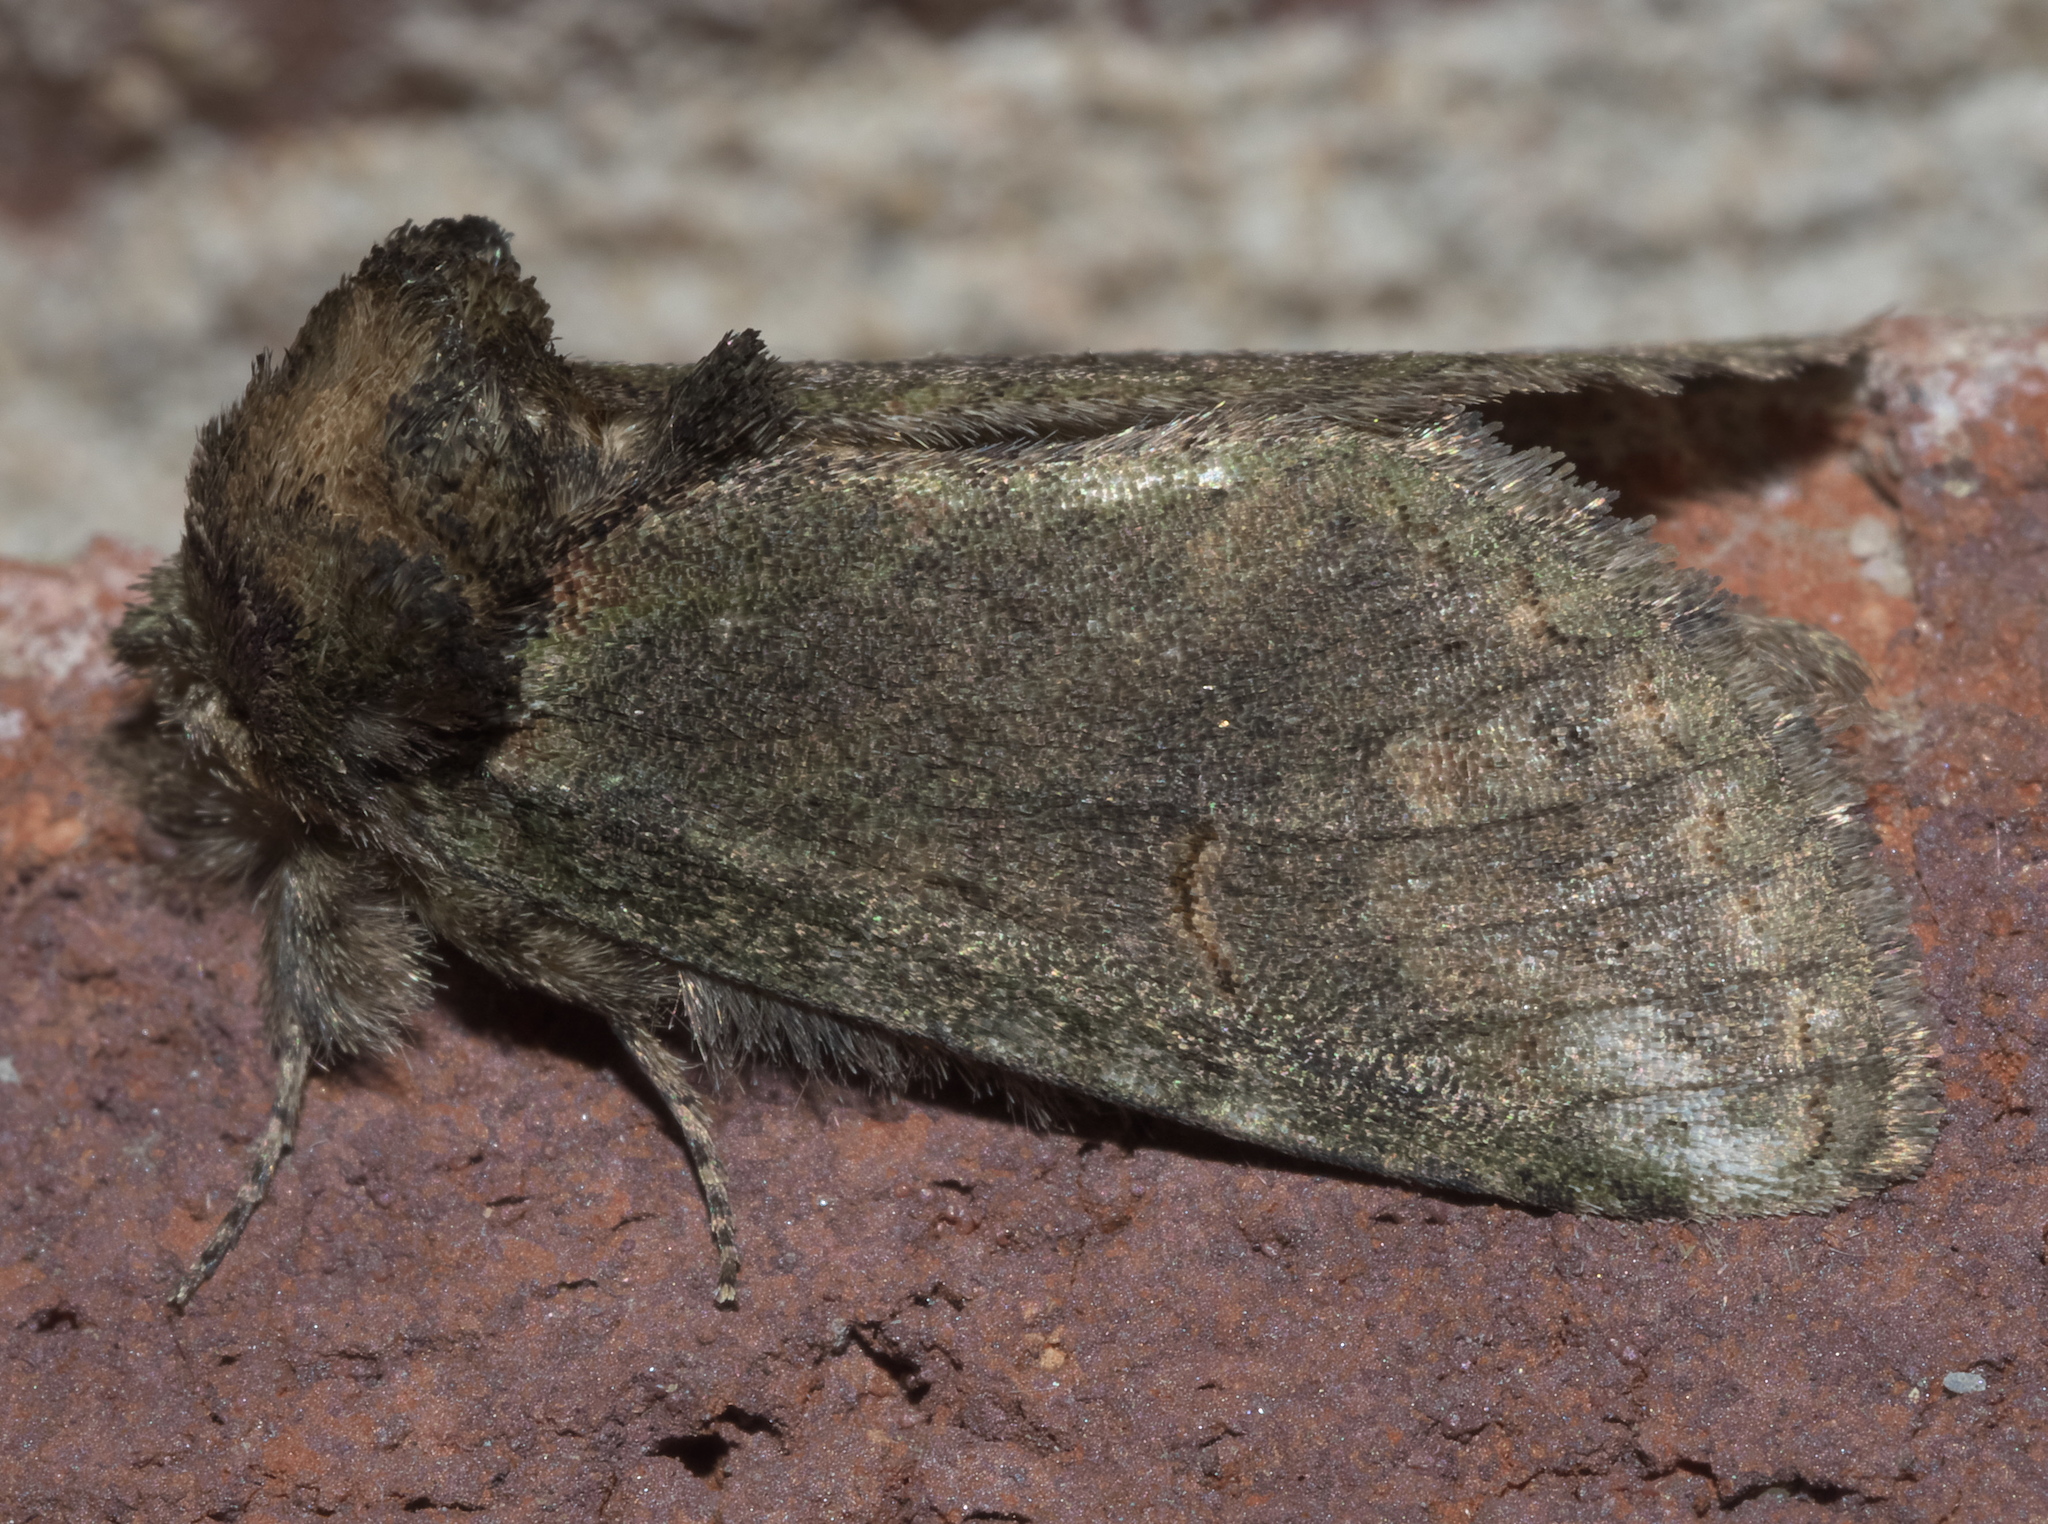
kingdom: Animalia
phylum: Arthropoda
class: Insecta
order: Lepidoptera
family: Notodontidae
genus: Rifargia
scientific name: Rifargia
